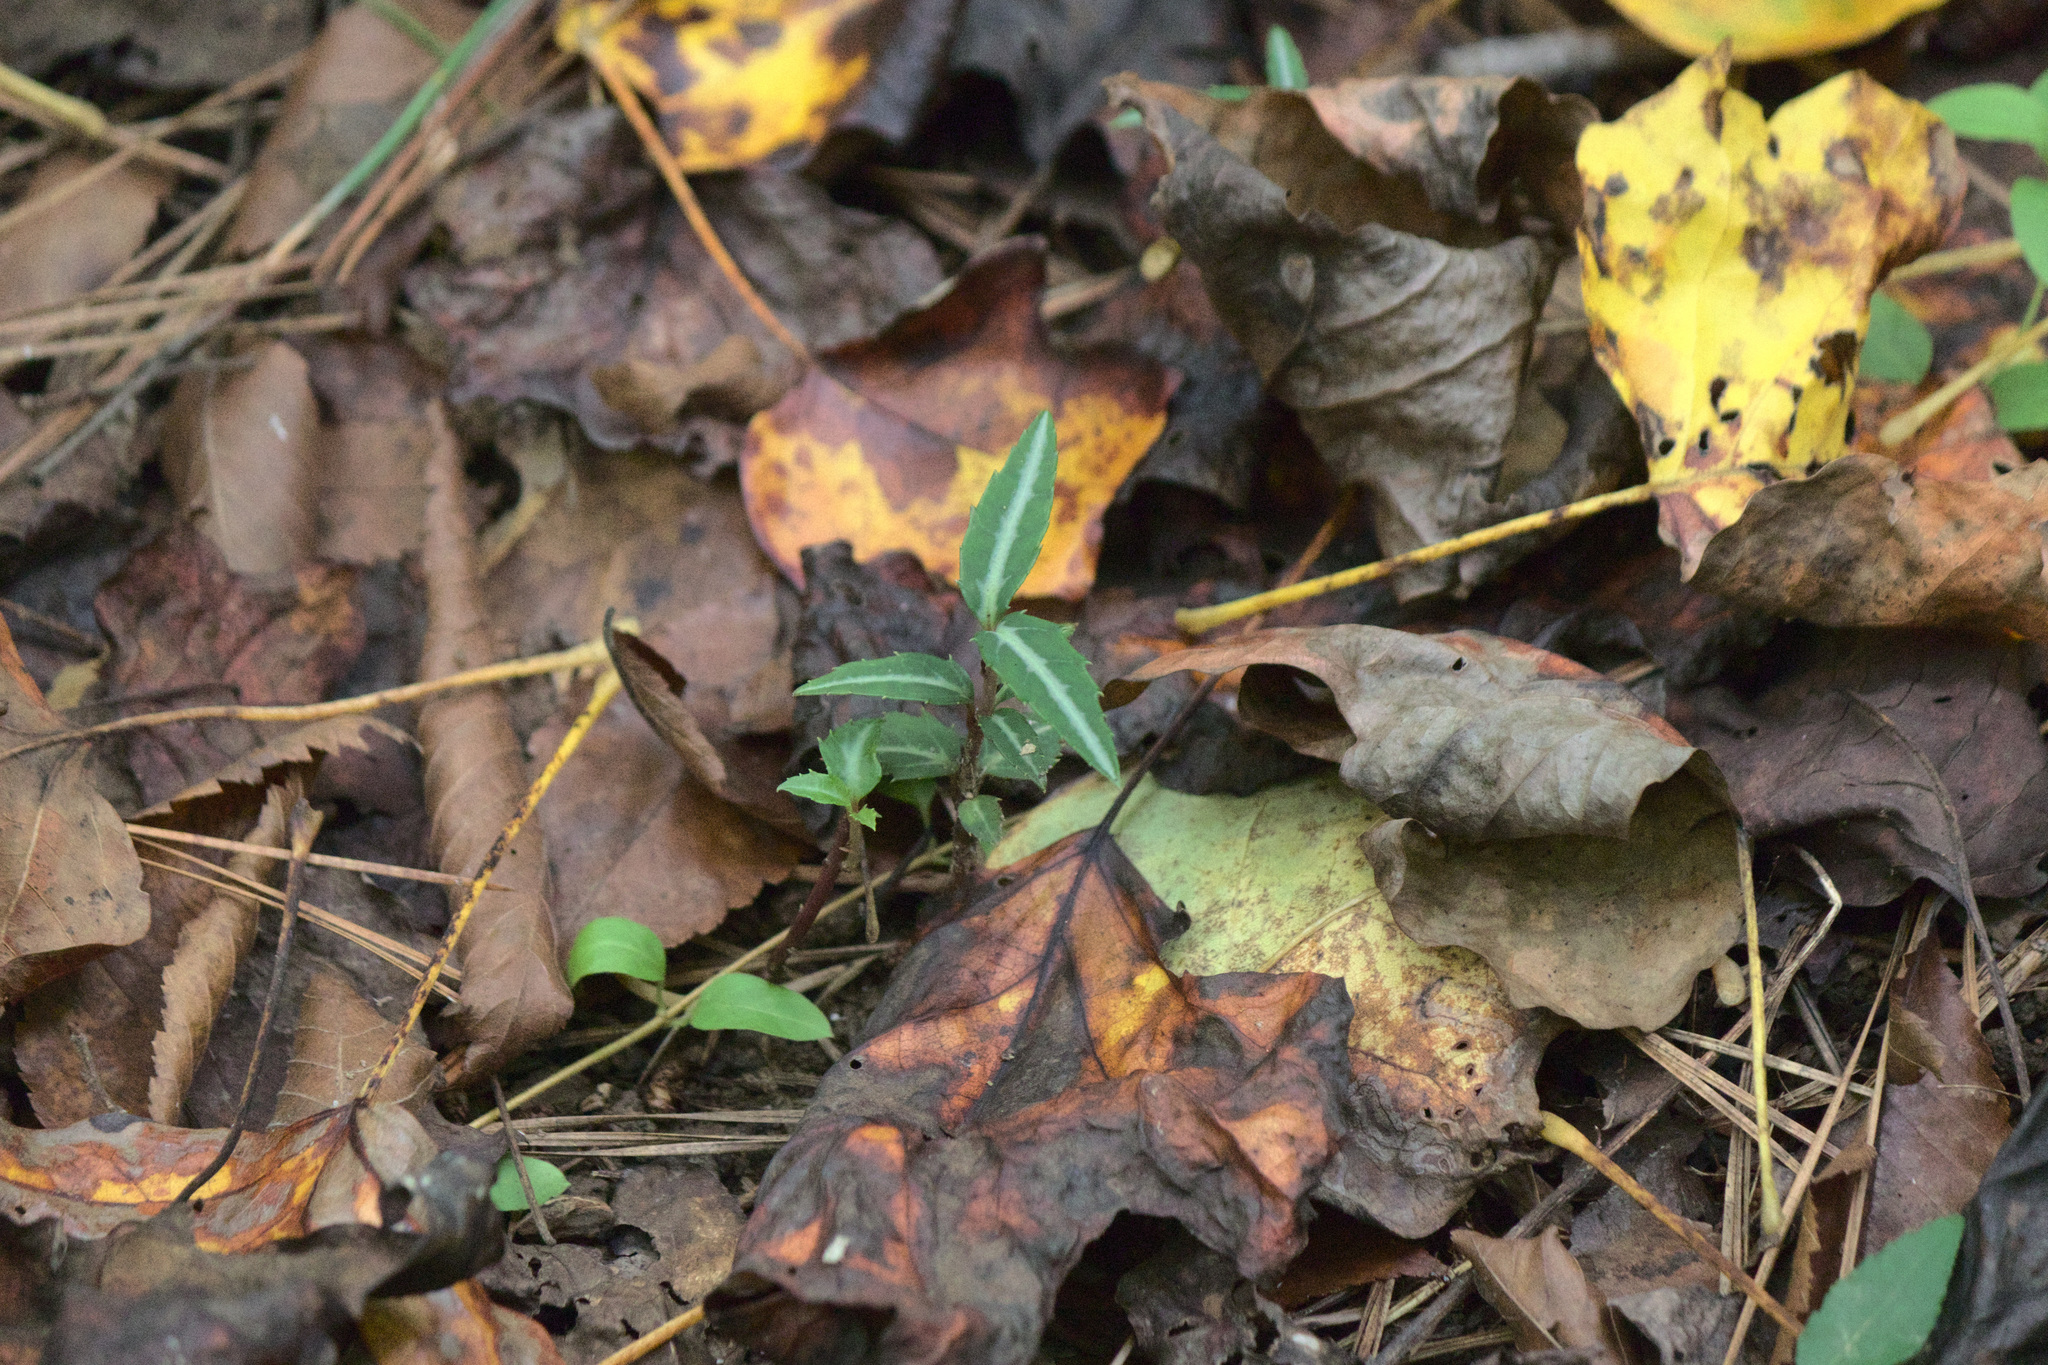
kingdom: Plantae
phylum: Tracheophyta
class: Magnoliopsida
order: Ericales
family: Ericaceae
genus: Chimaphila
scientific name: Chimaphila maculata
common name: Spotted pipsissewa
